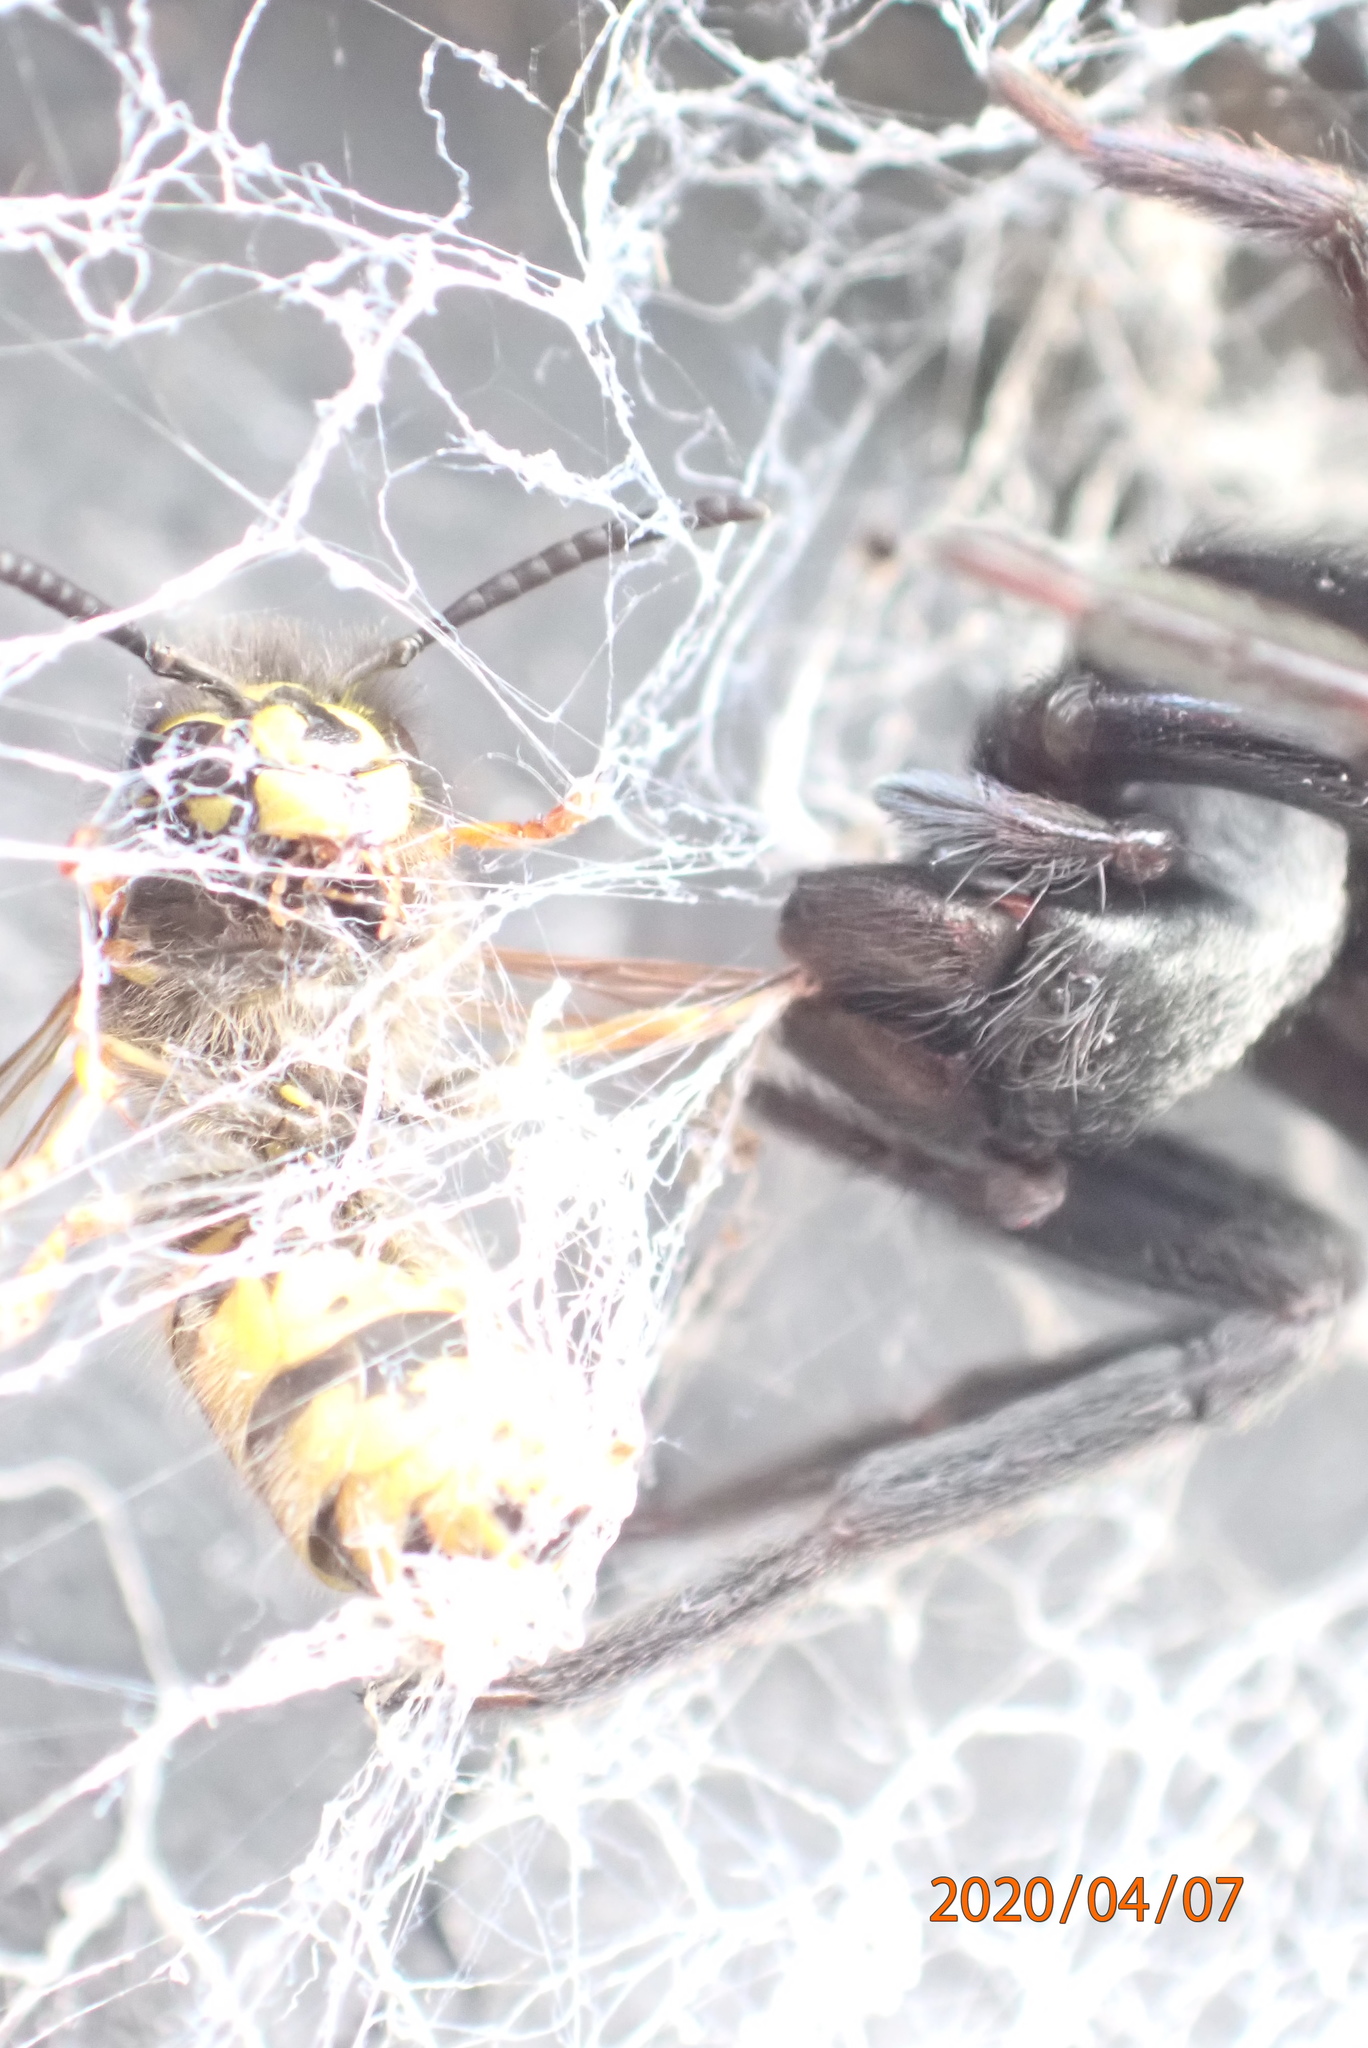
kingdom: Animalia
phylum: Arthropoda
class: Insecta
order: Hymenoptera
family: Vespidae
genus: Vespula
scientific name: Vespula vulgaris
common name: Common wasp
